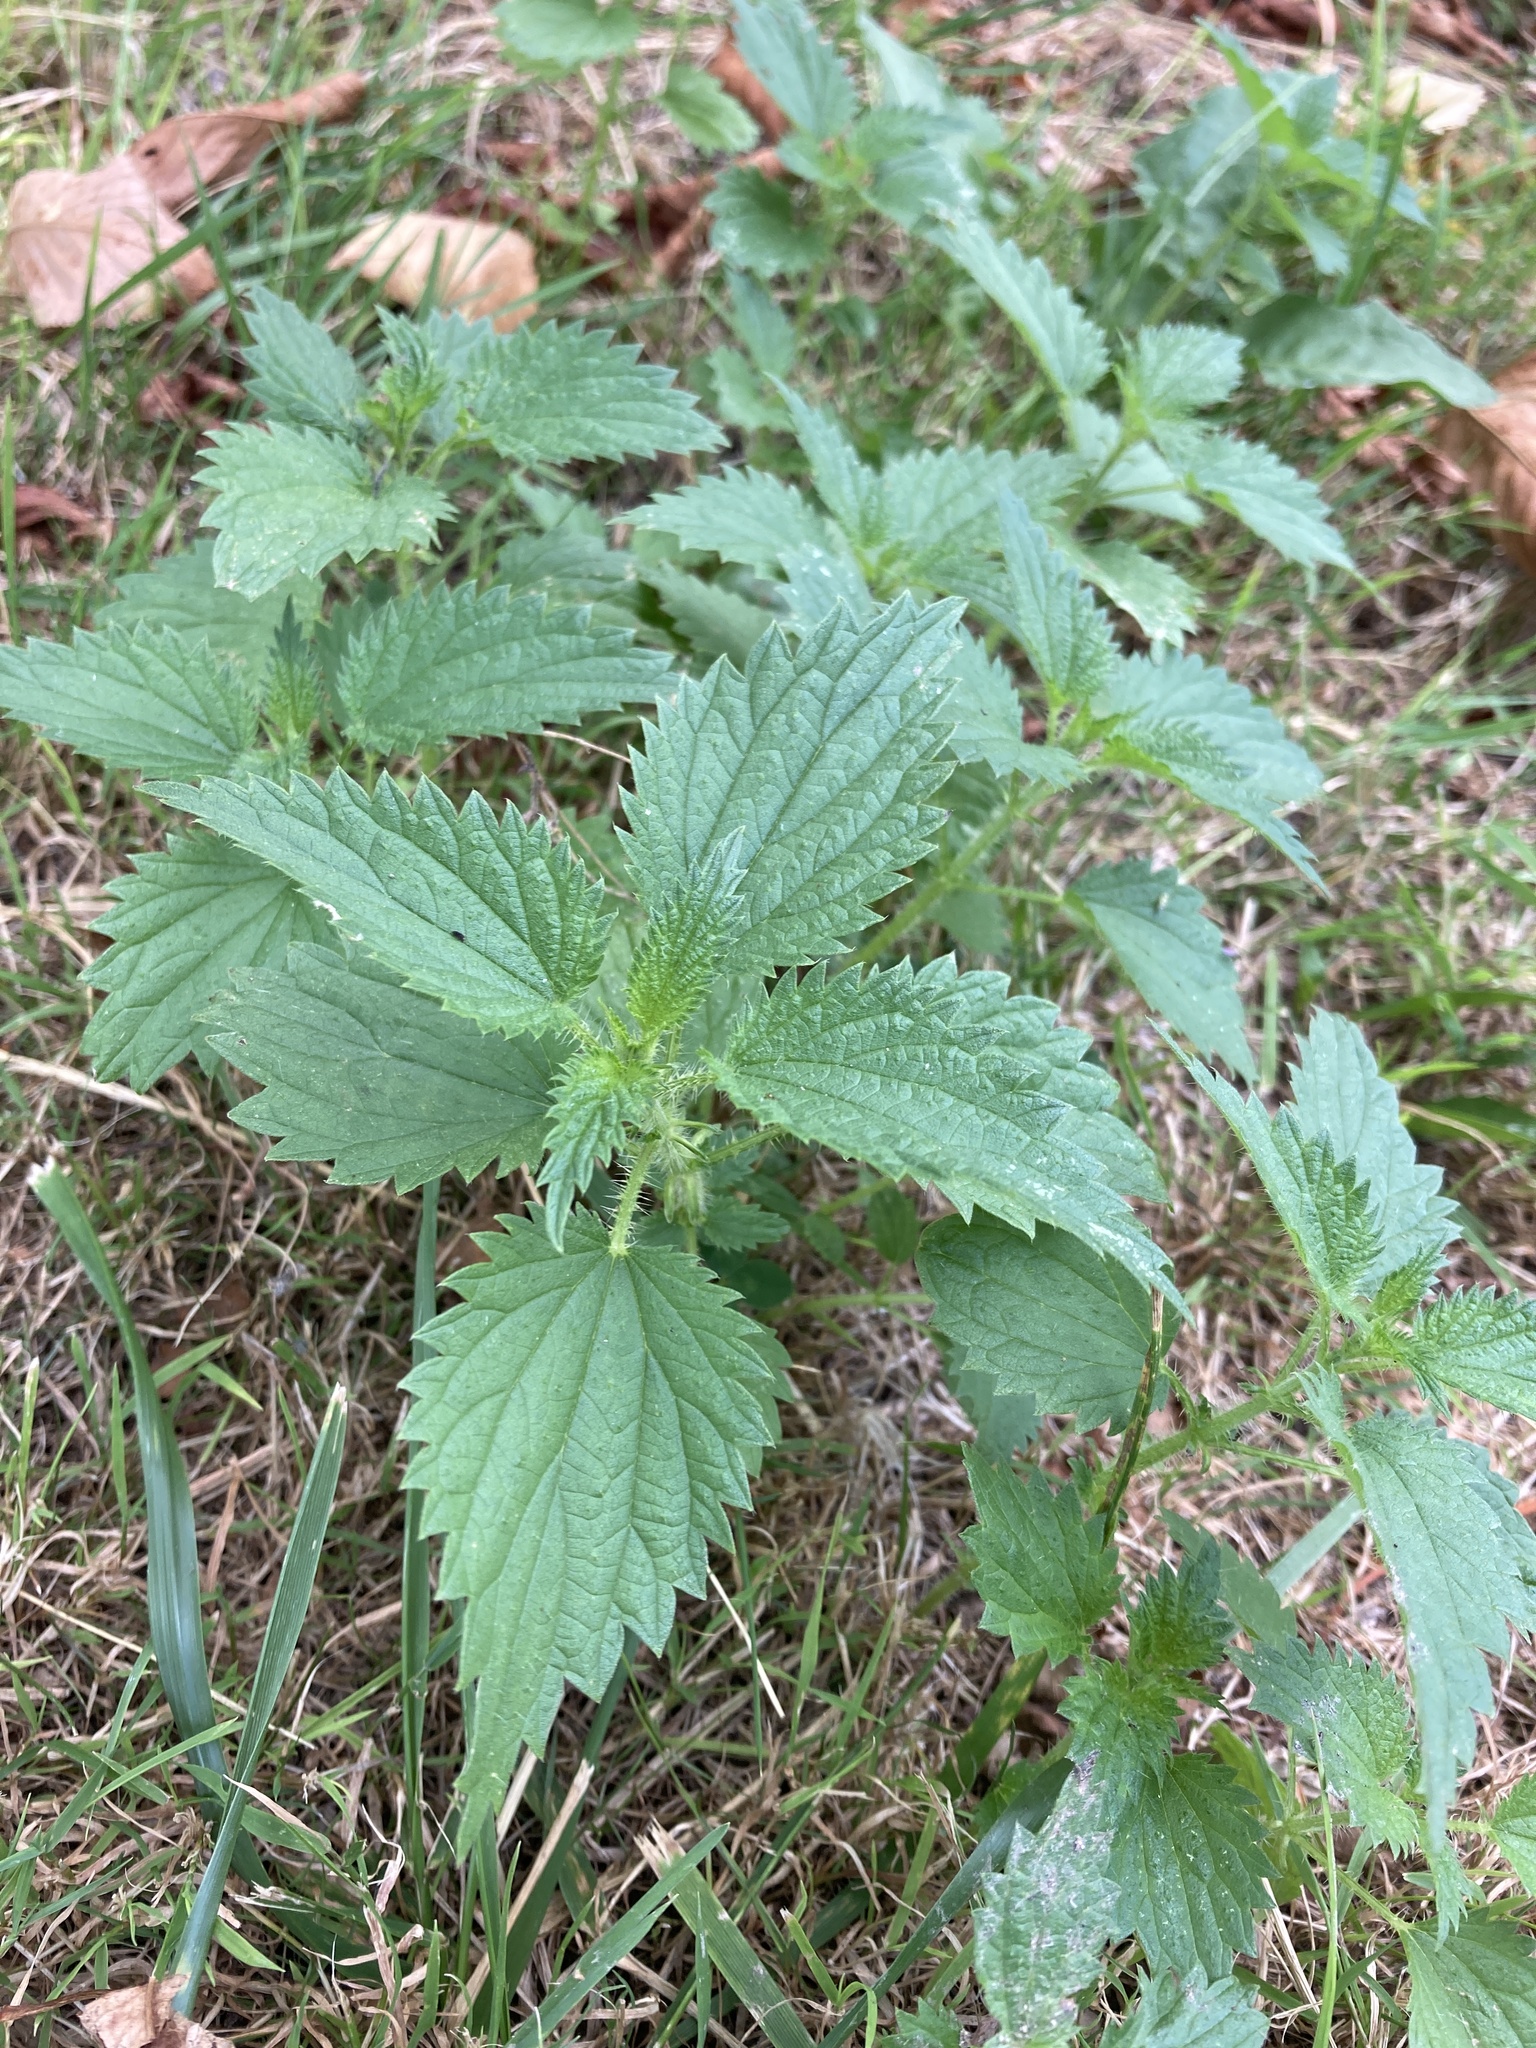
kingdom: Plantae
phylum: Tracheophyta
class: Magnoliopsida
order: Rosales
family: Urticaceae
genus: Urtica
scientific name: Urtica dioica
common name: Common nettle
